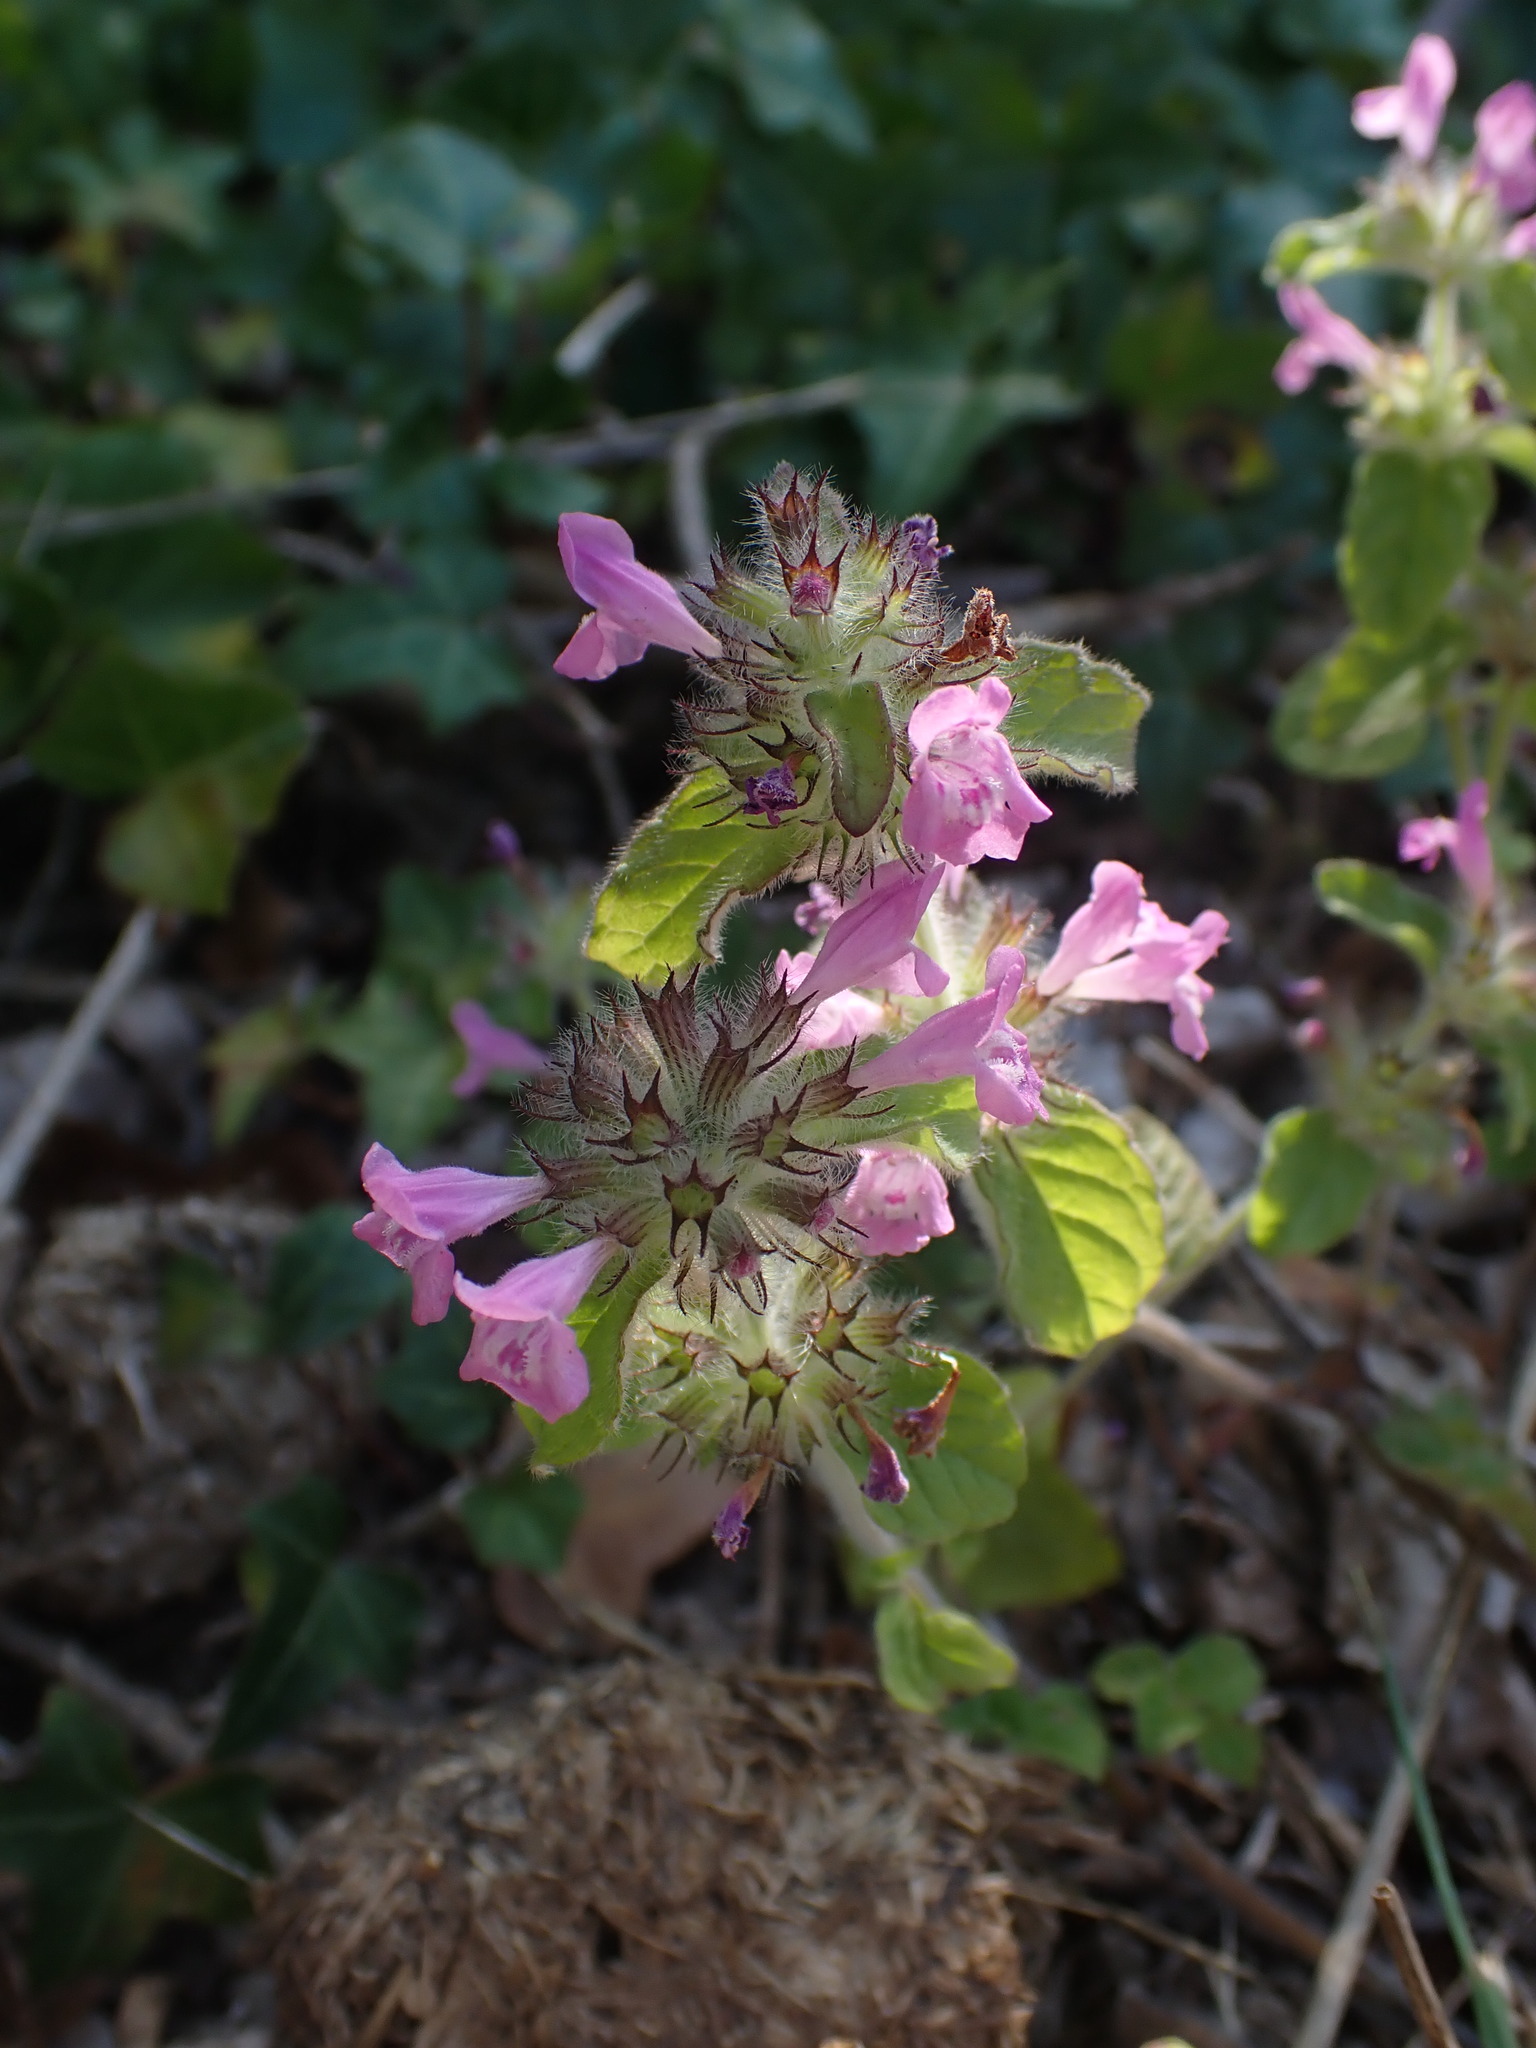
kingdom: Plantae
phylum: Tracheophyta
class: Magnoliopsida
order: Lamiales
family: Lamiaceae
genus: Clinopodium
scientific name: Clinopodium vulgare
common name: Wild basil
